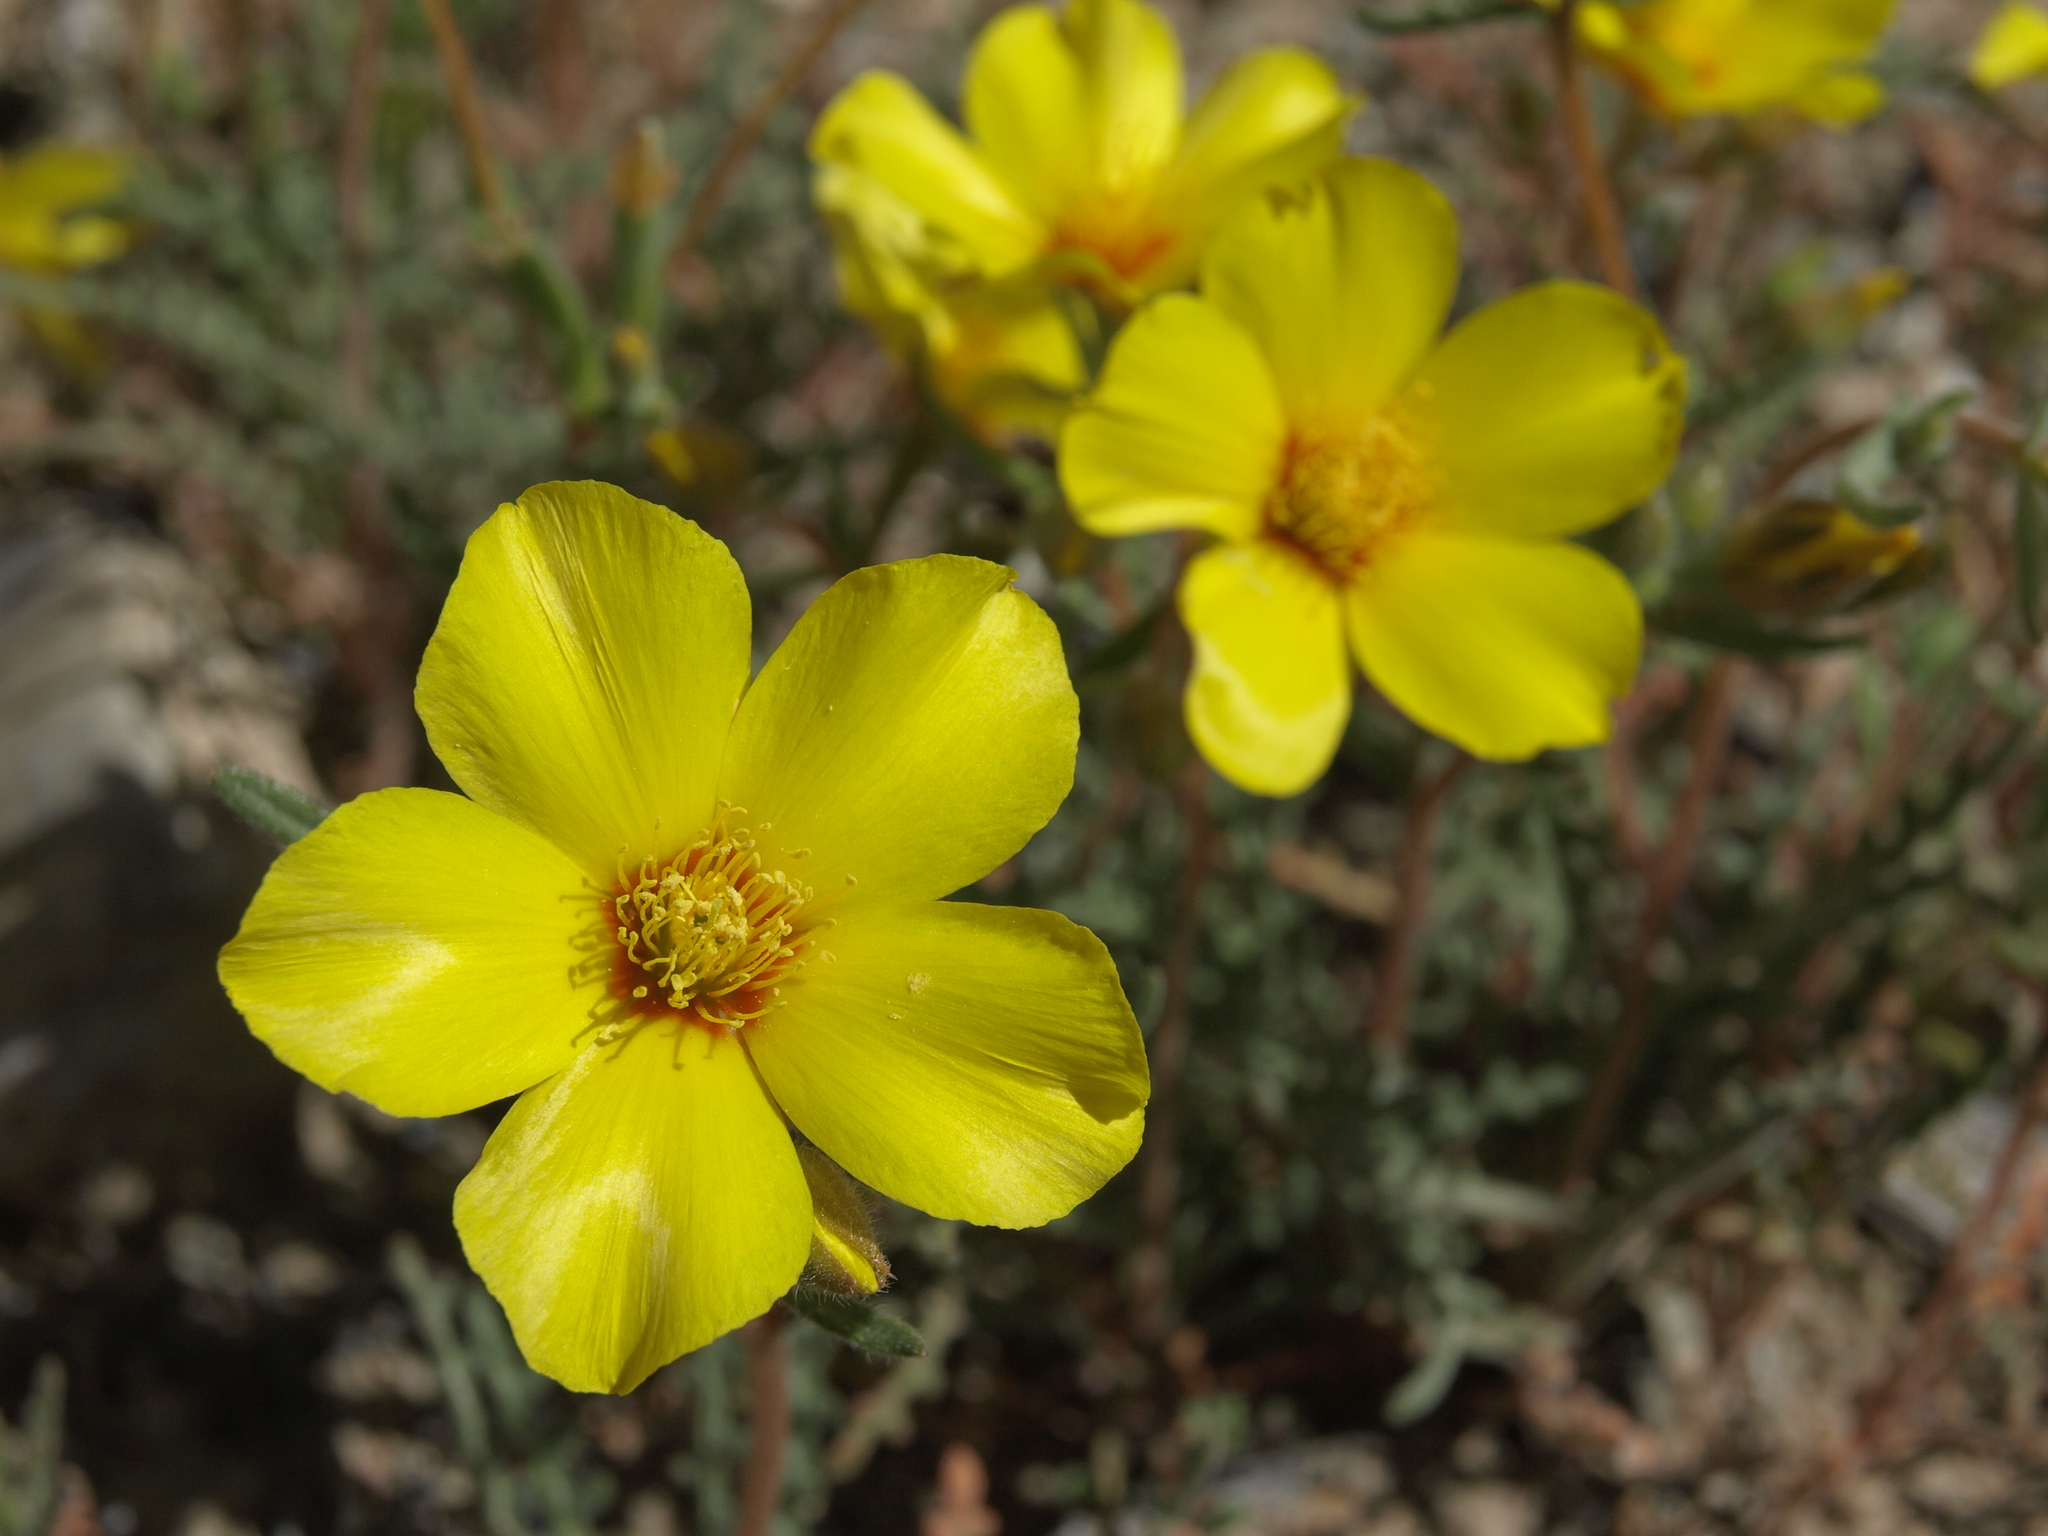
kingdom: Plantae
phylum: Tracheophyta
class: Magnoliopsida
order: Cornales
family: Loasaceae
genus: Mentzelia
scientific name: Mentzelia nitens
